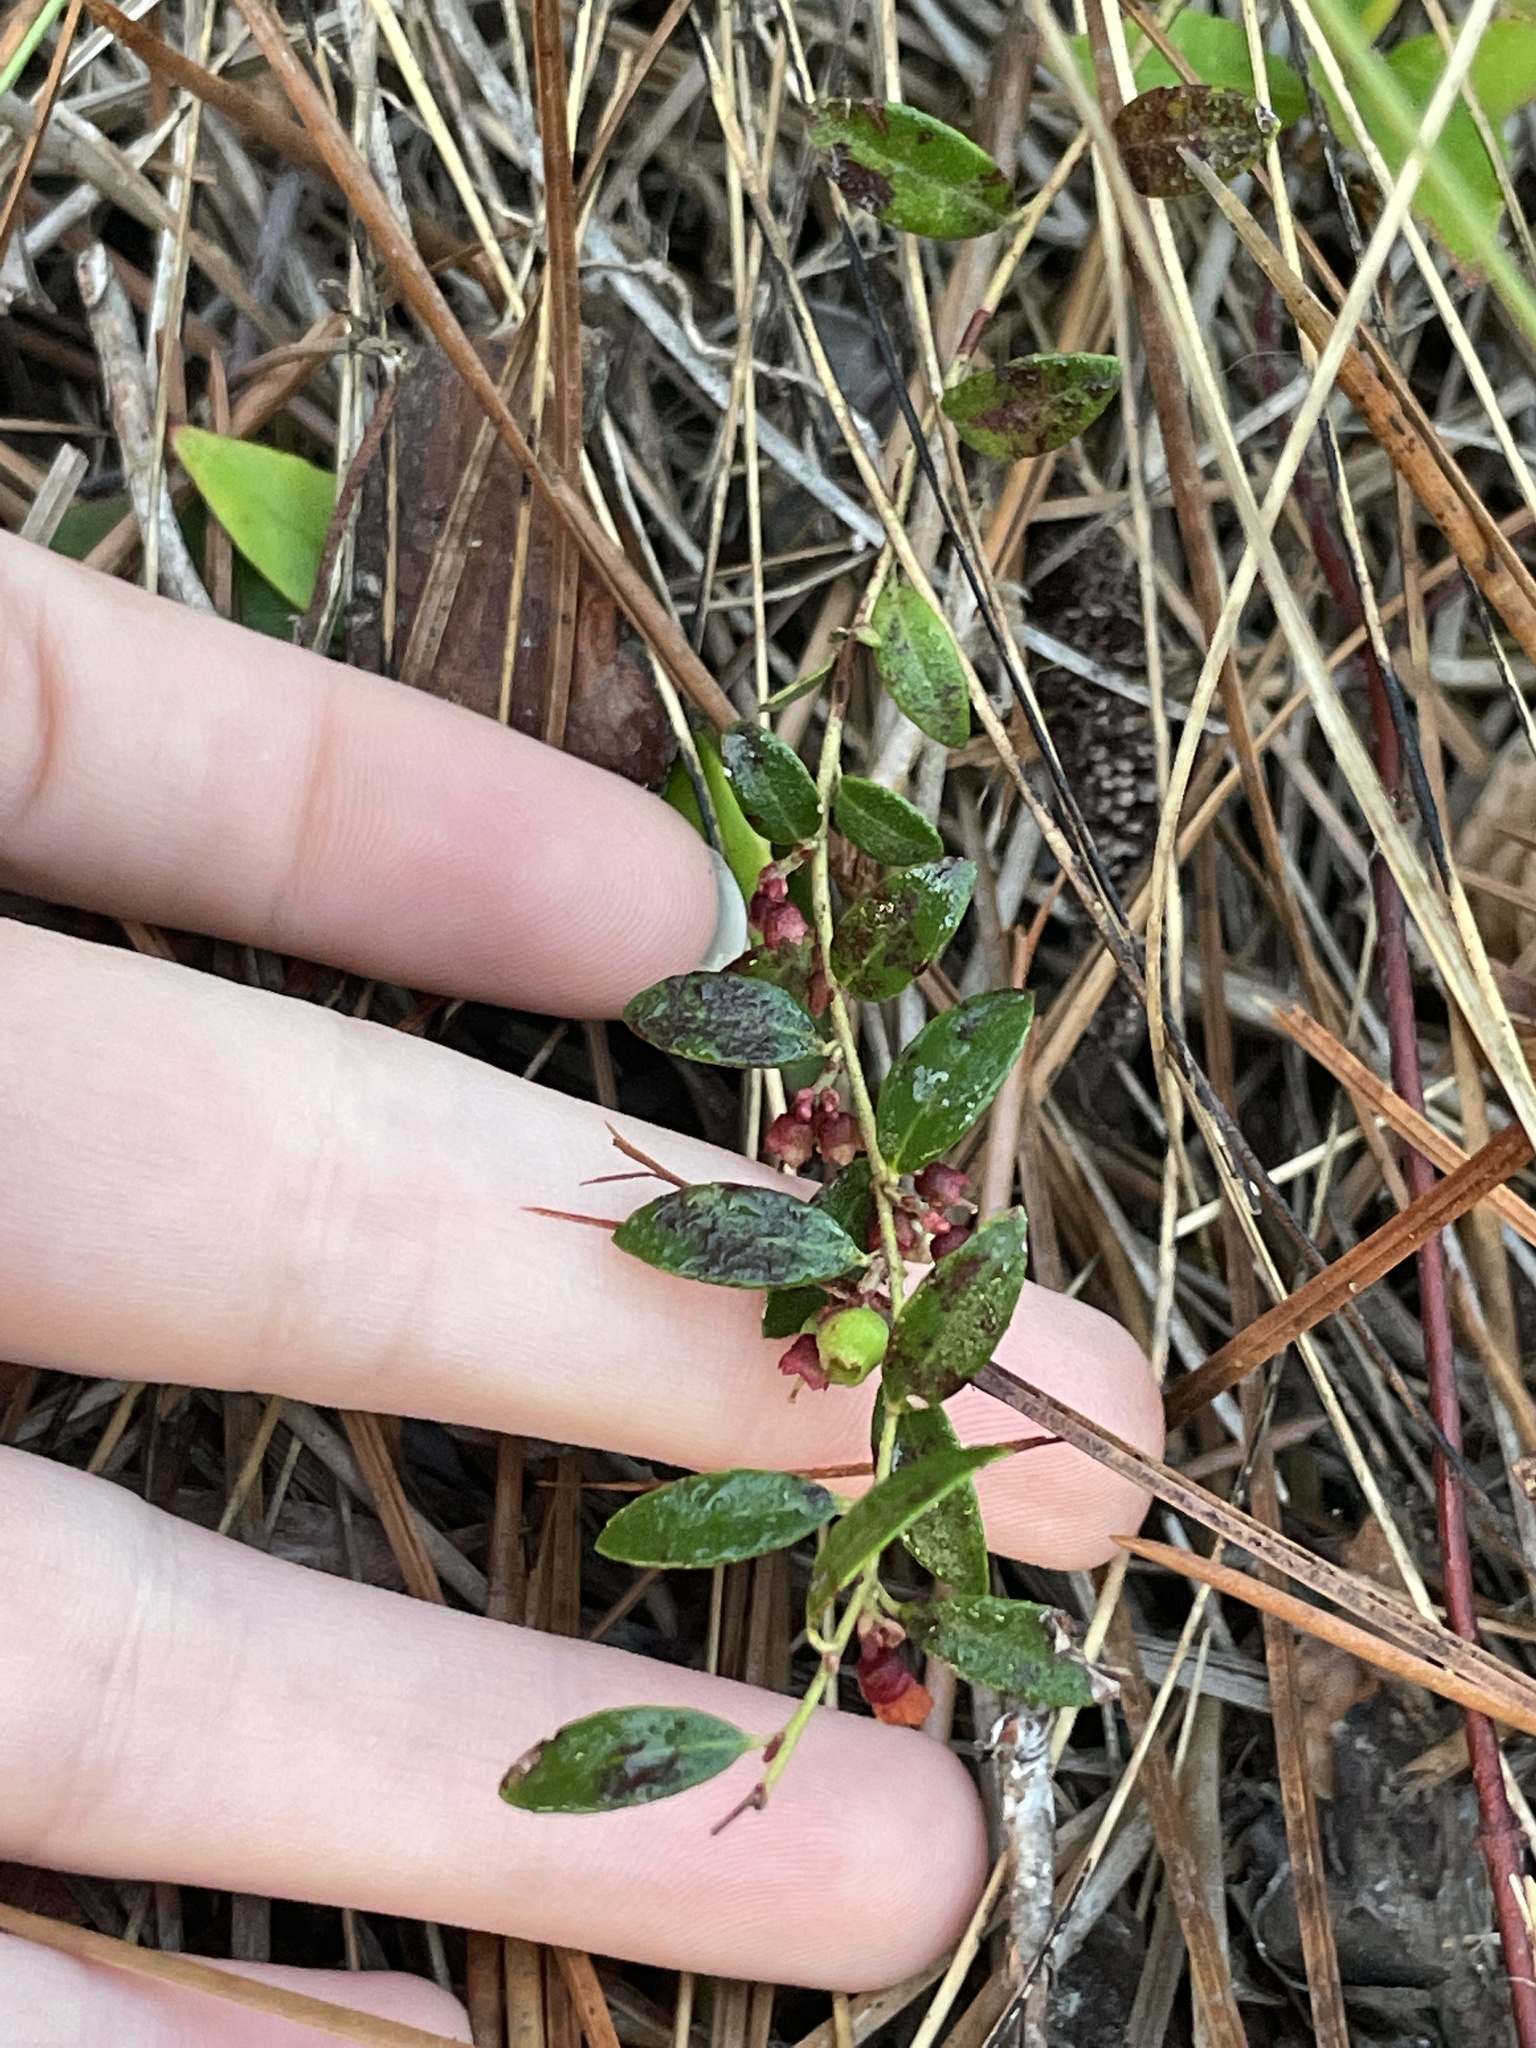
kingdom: Plantae
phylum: Tracheophyta
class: Magnoliopsida
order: Ericales
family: Ericaceae
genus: Vaccinium
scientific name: Vaccinium crassifolium
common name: Creeping blueberry
